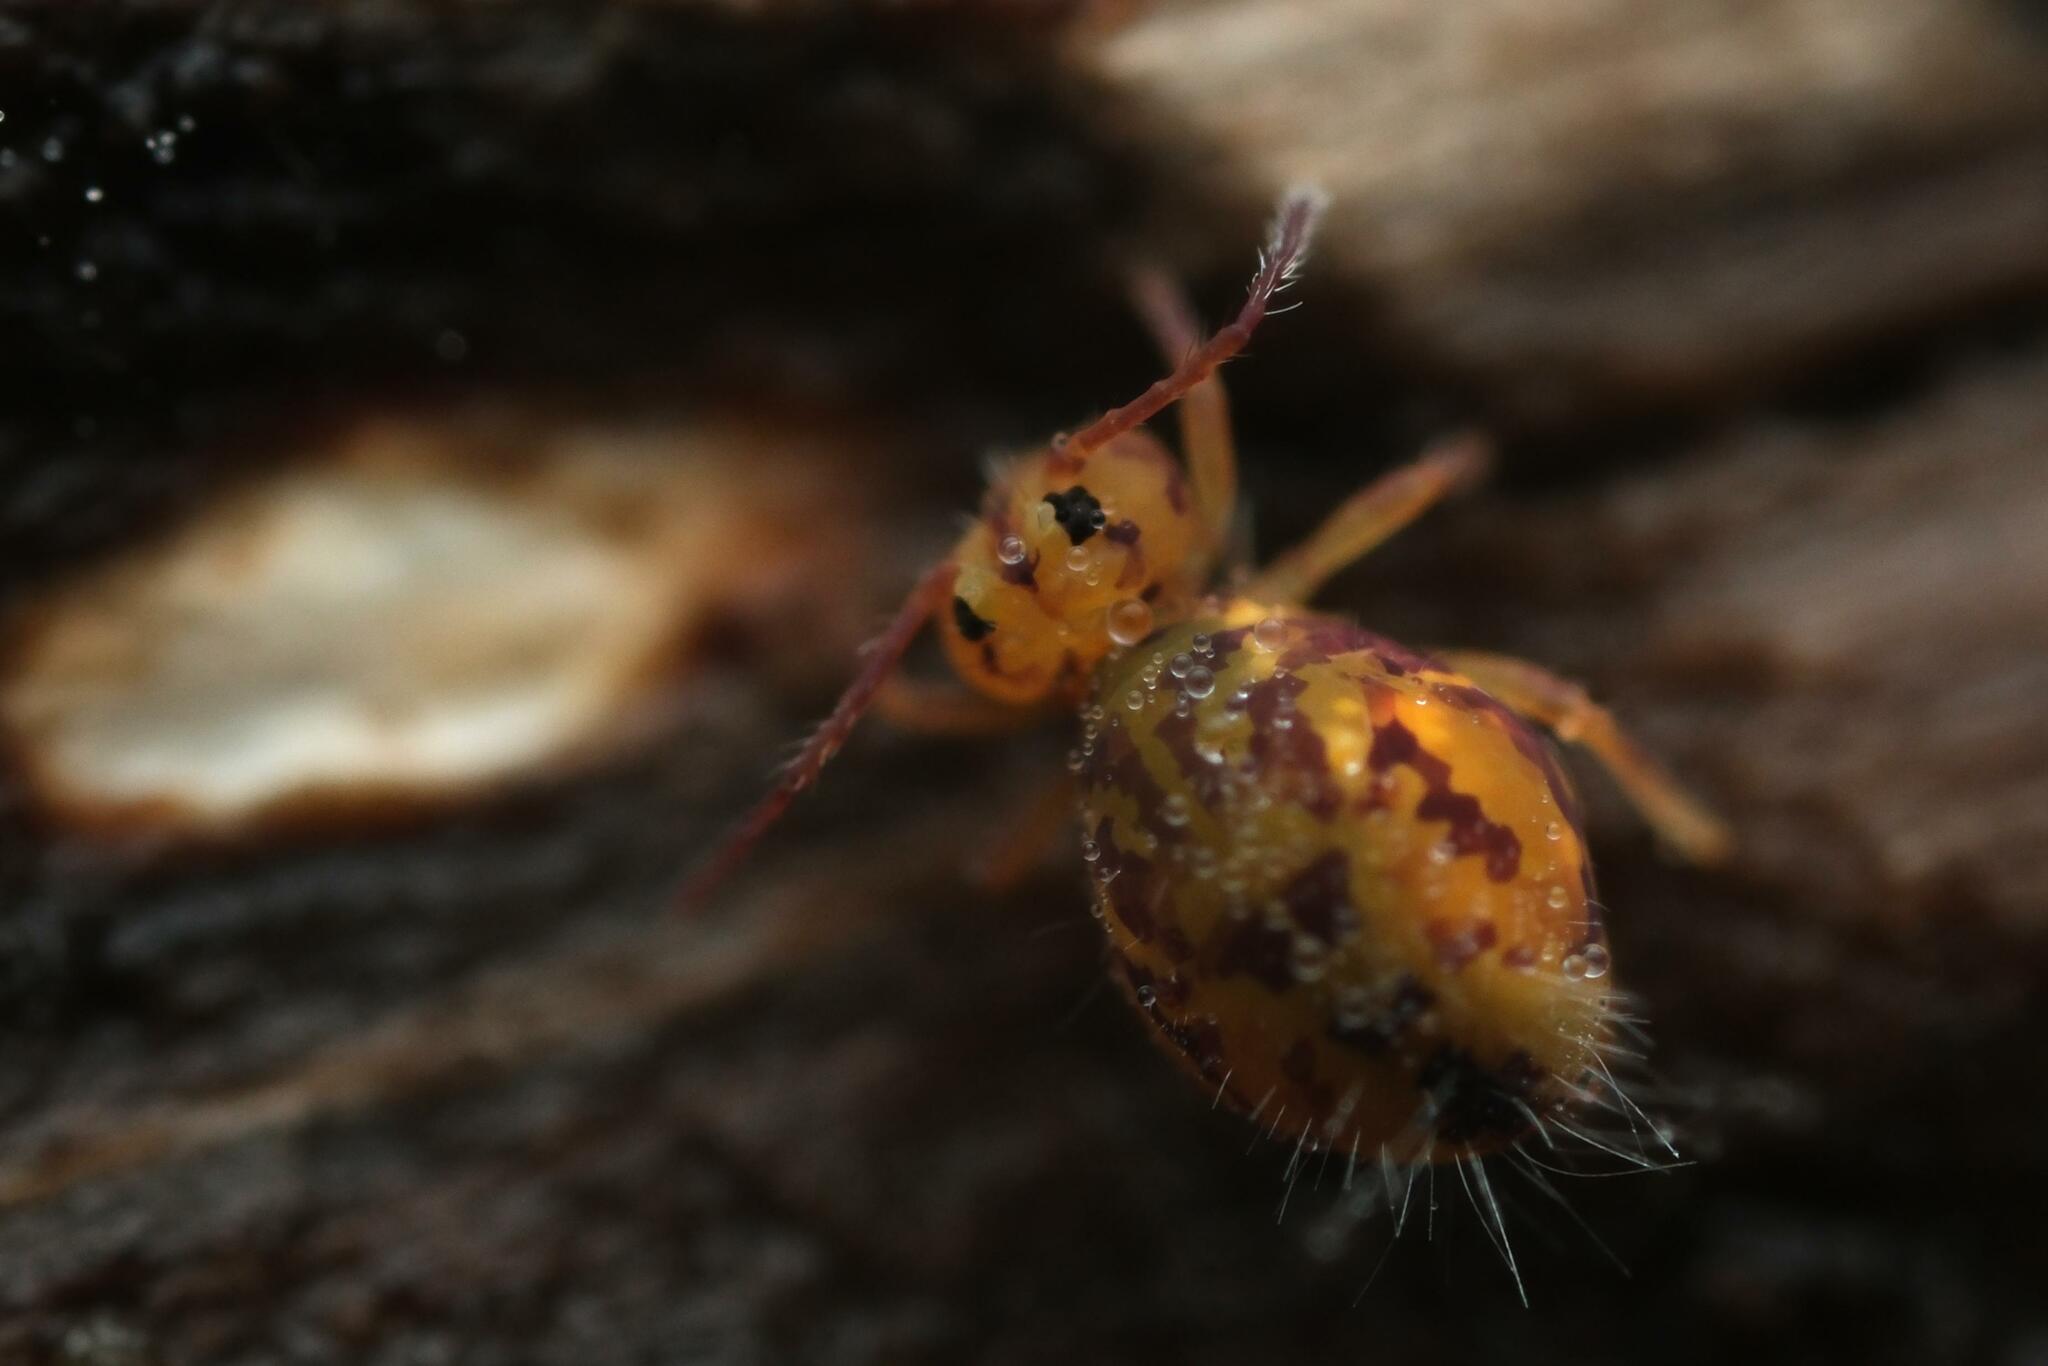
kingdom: Animalia
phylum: Arthropoda
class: Collembola
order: Symphypleona
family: Dicyrtomidae
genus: Dicyrtomina
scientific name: Dicyrtomina ornata
